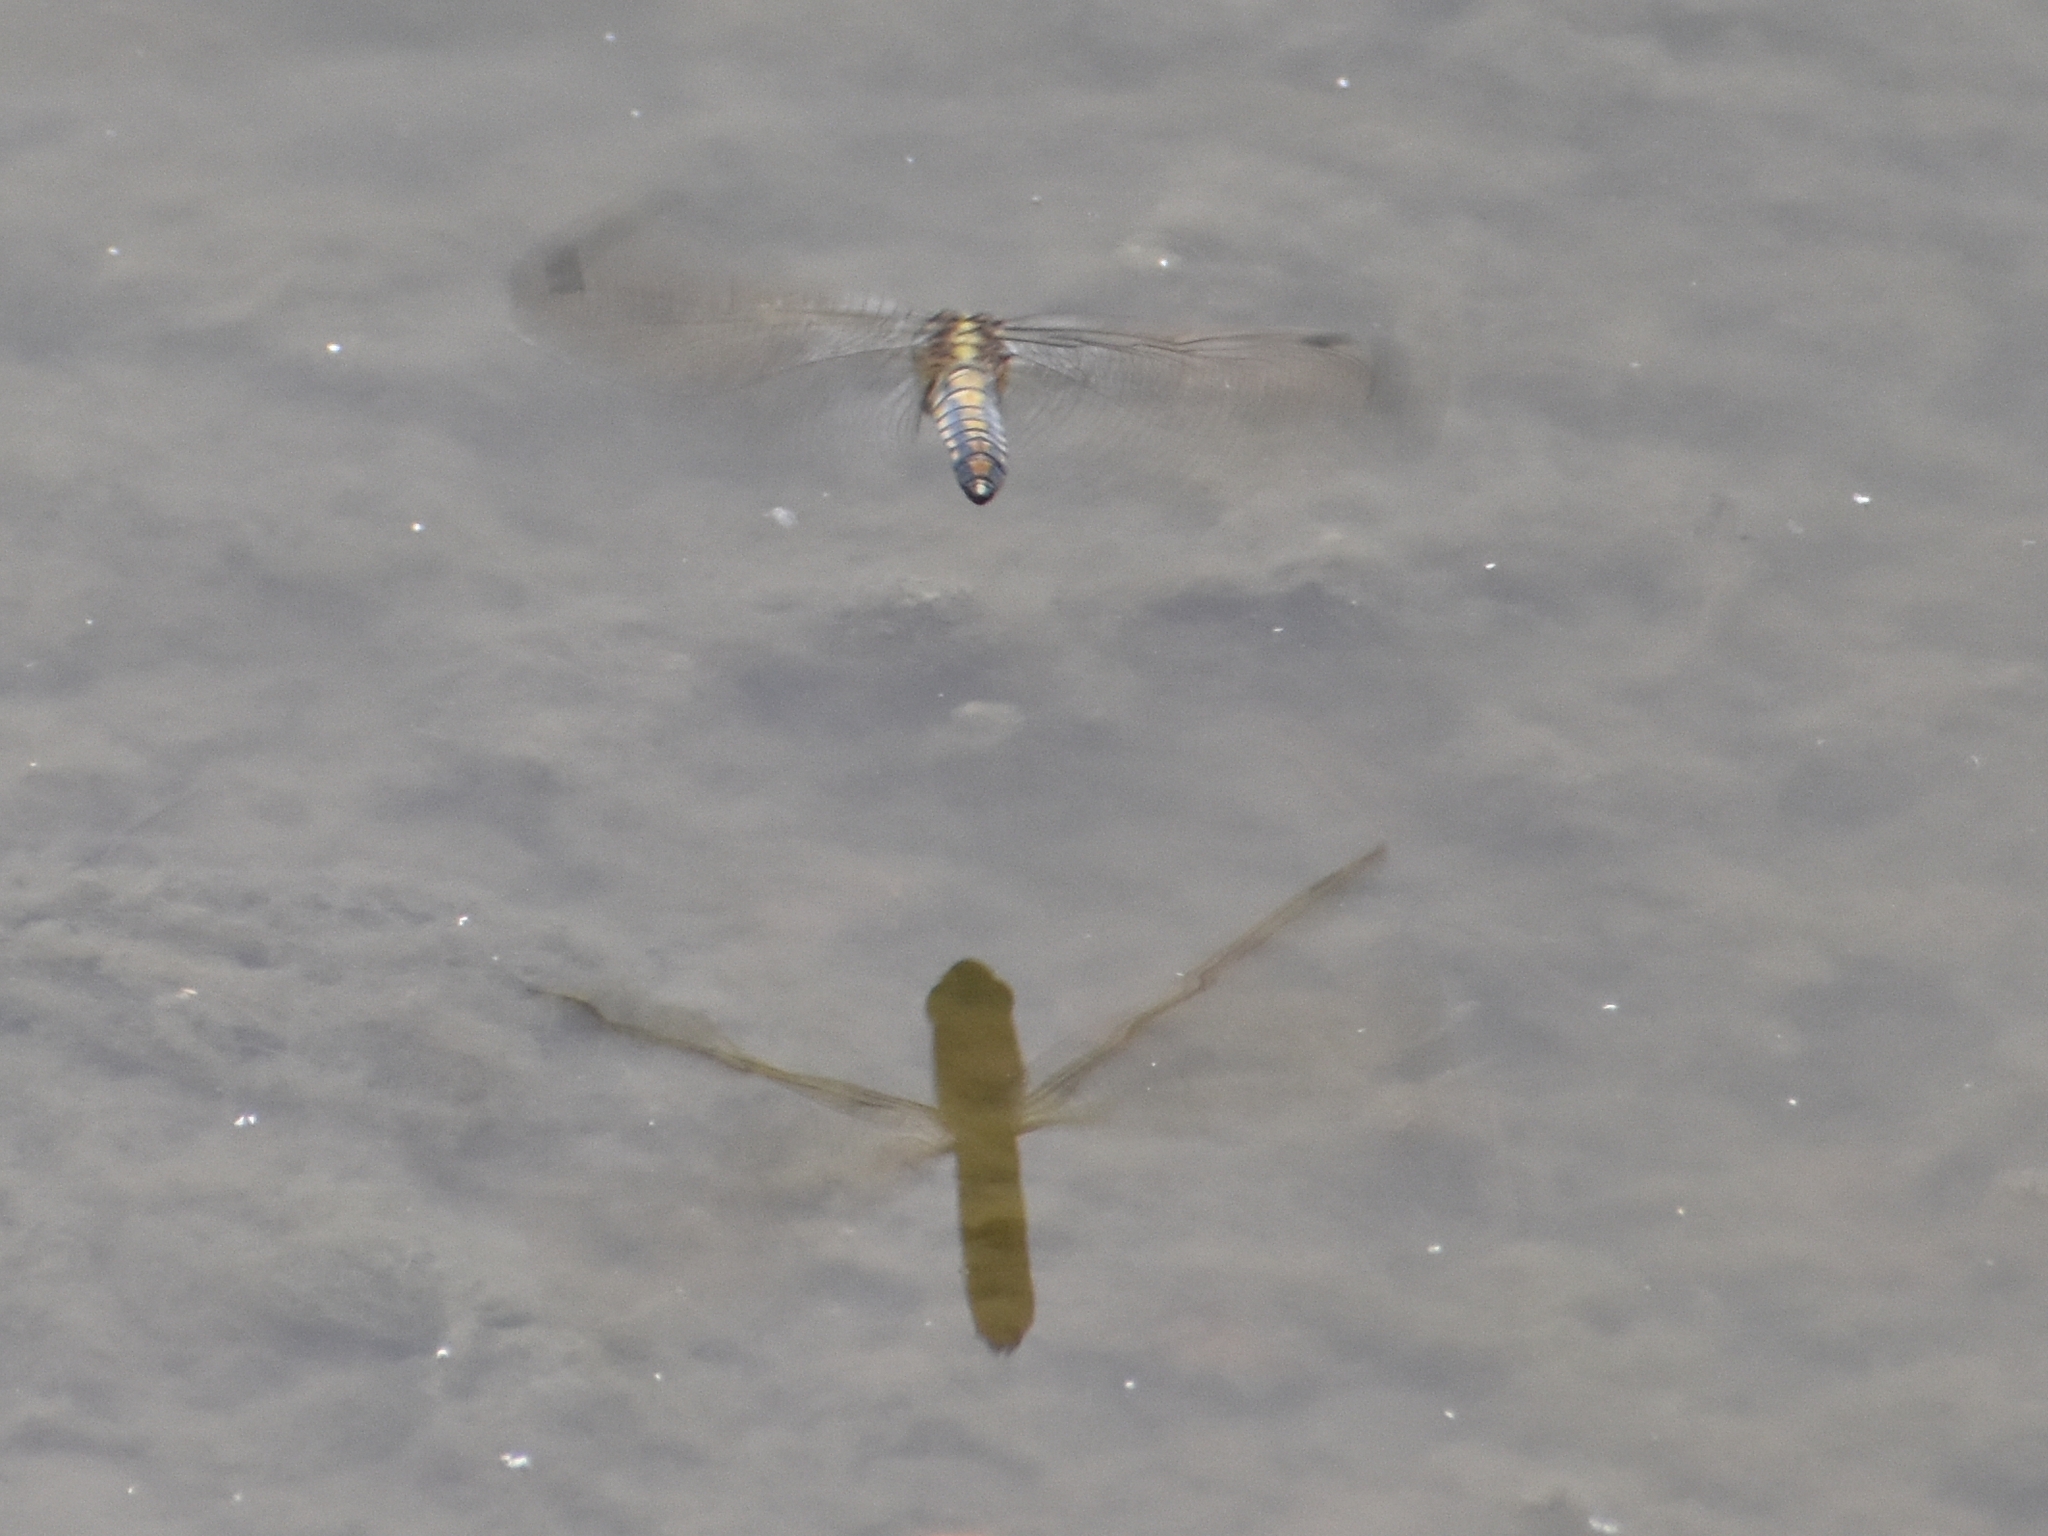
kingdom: Animalia
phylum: Arthropoda
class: Insecta
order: Odonata
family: Libellulidae
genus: Orthetrum
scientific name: Orthetrum cancellatum
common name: Black-tailed skimmer
